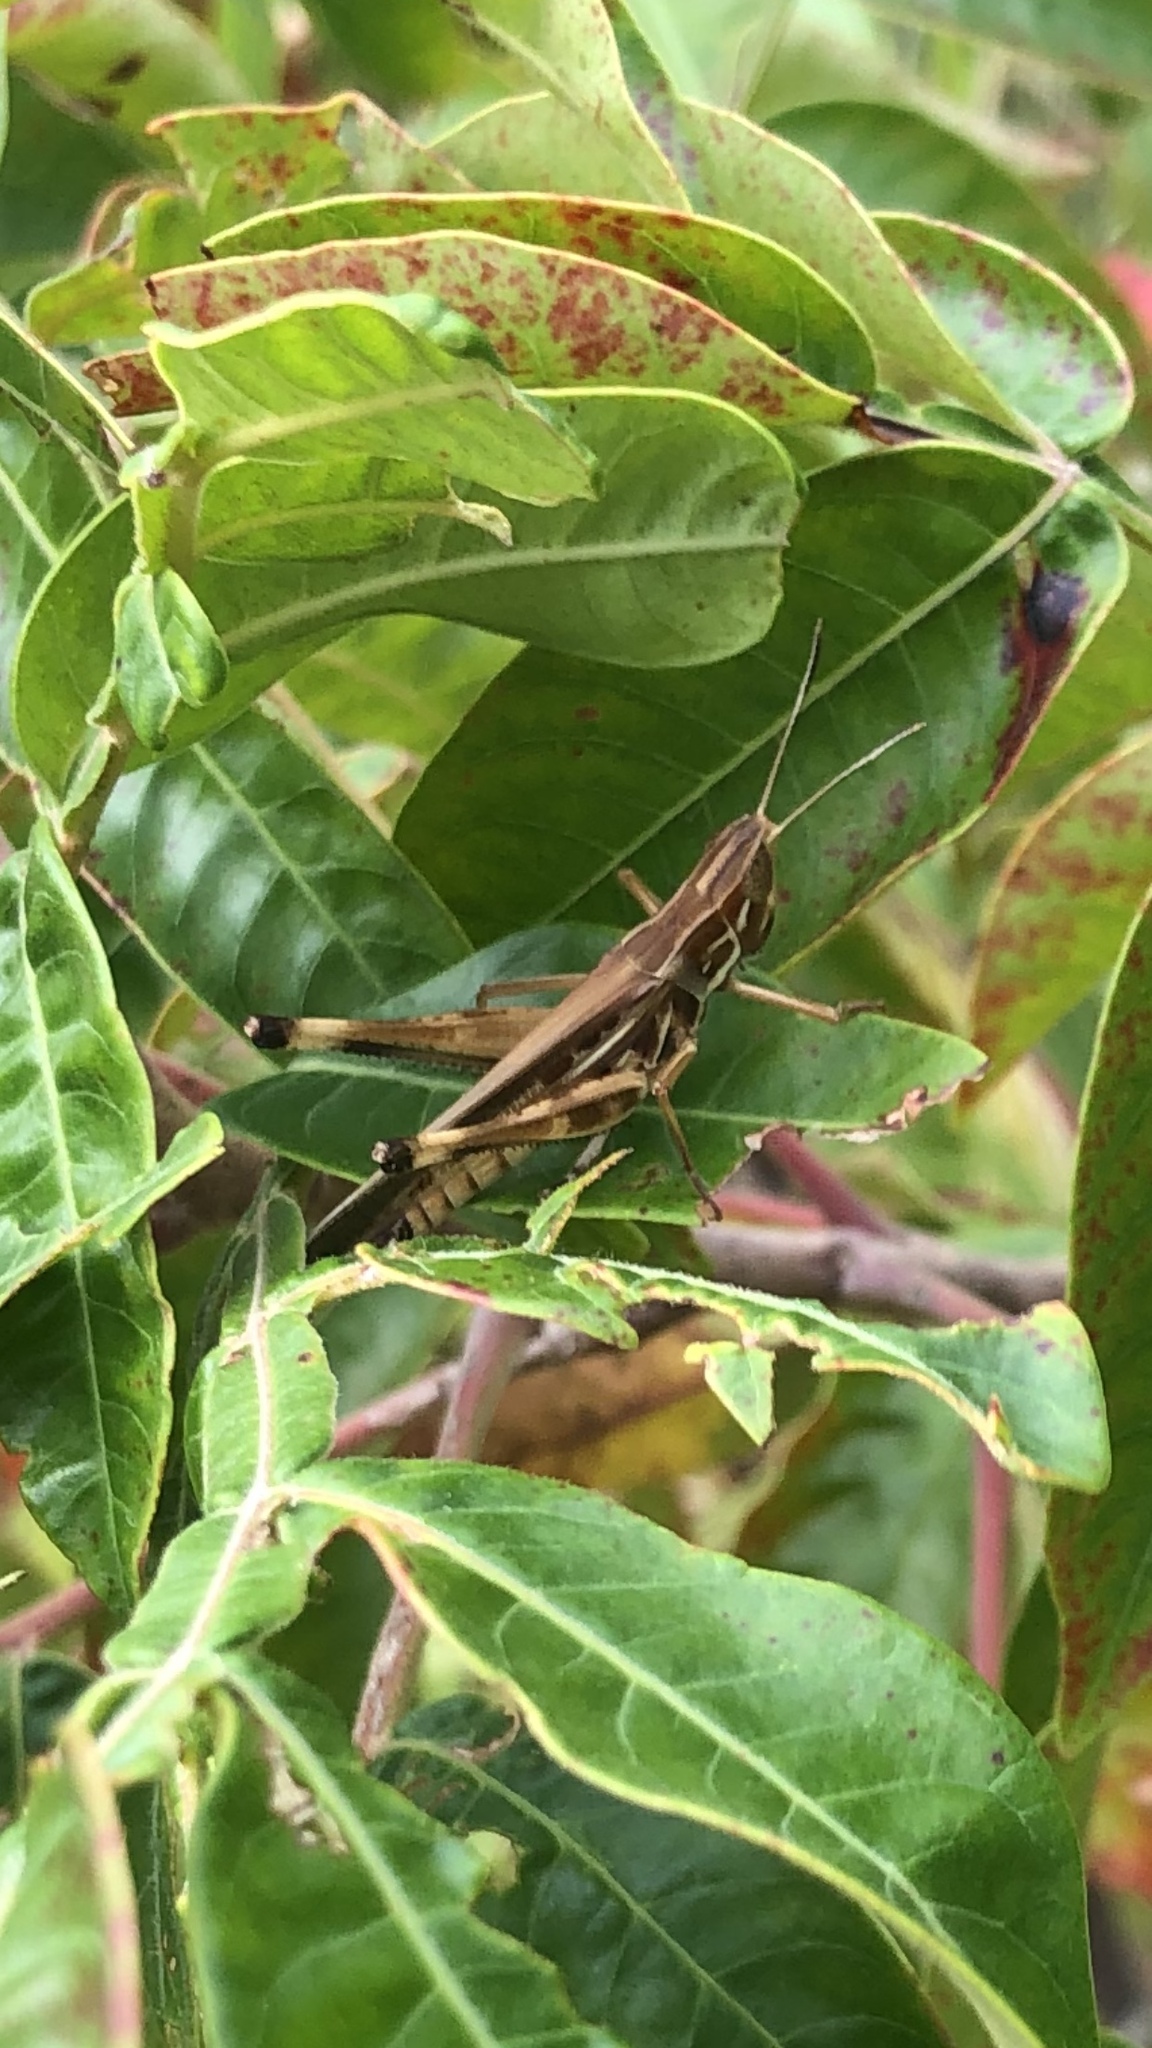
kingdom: Animalia
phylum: Arthropoda
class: Insecta
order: Orthoptera
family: Acrididae
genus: Syrbula
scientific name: Syrbula admirabilis
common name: Handsome grasshopper
